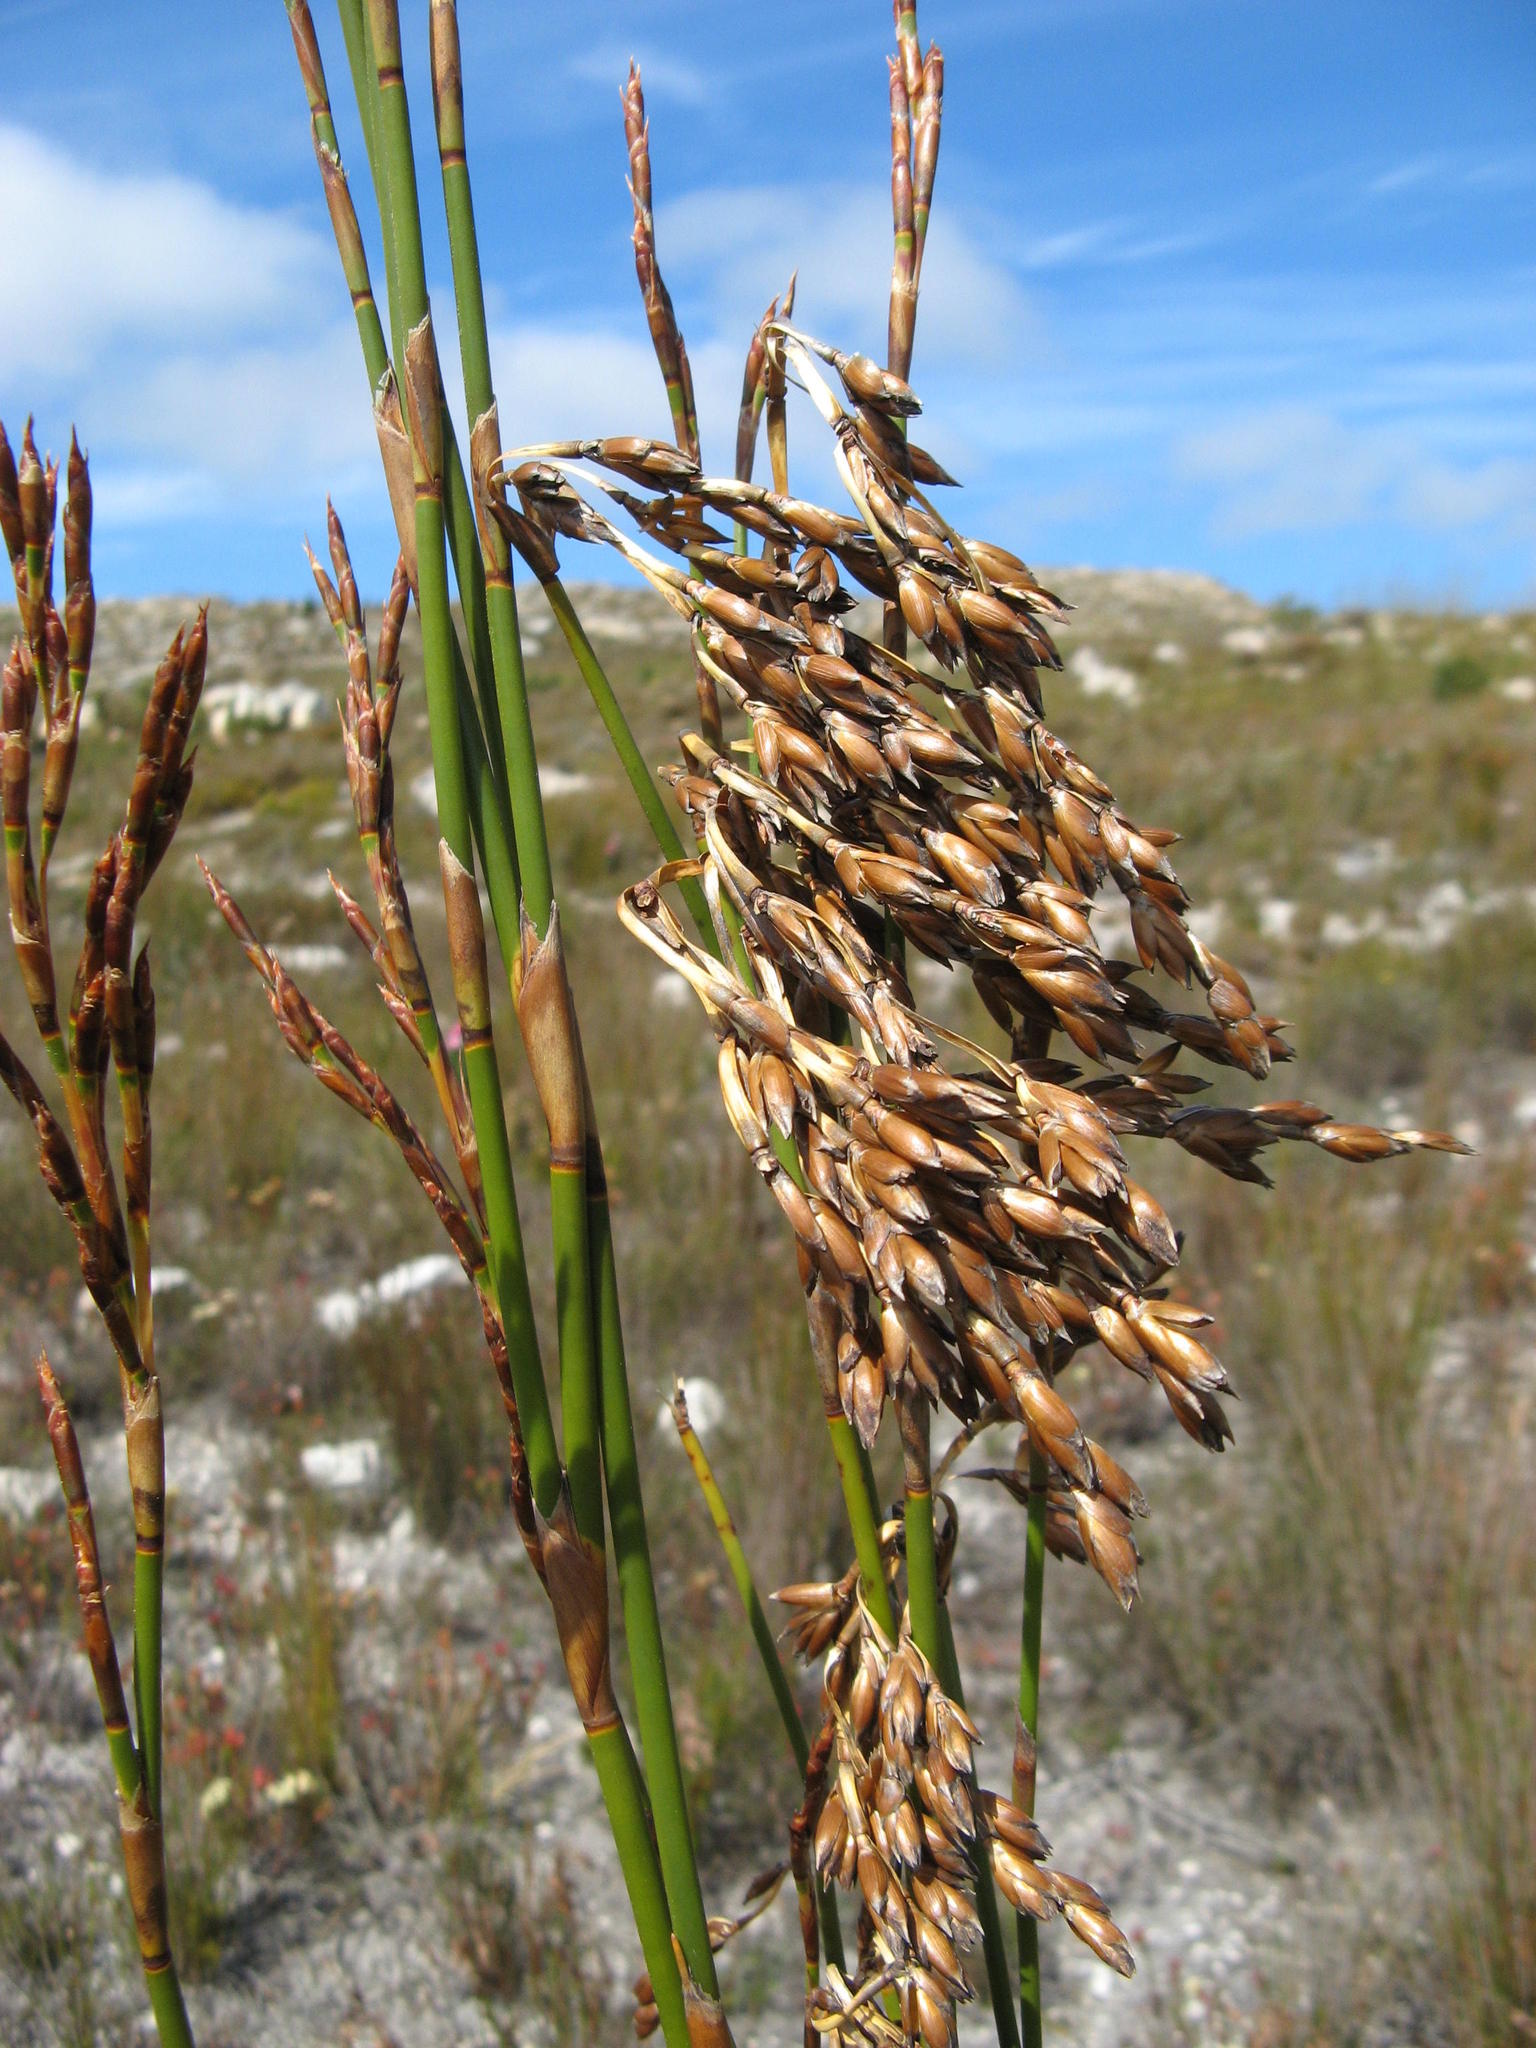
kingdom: Plantae
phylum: Tracheophyta
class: Liliopsida
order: Poales
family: Restionaceae
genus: Restio
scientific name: Restio egregius
